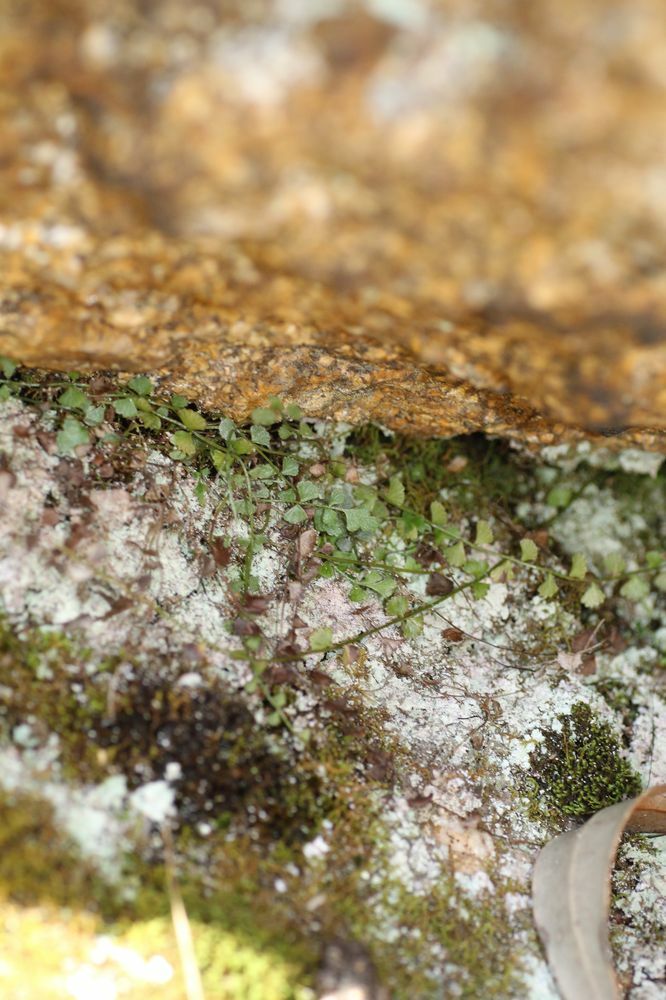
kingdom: Plantae
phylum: Tracheophyta
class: Polypodiopsida
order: Polypodiales
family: Aspleniaceae
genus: Asplenium
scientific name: Asplenium flabellifolium
